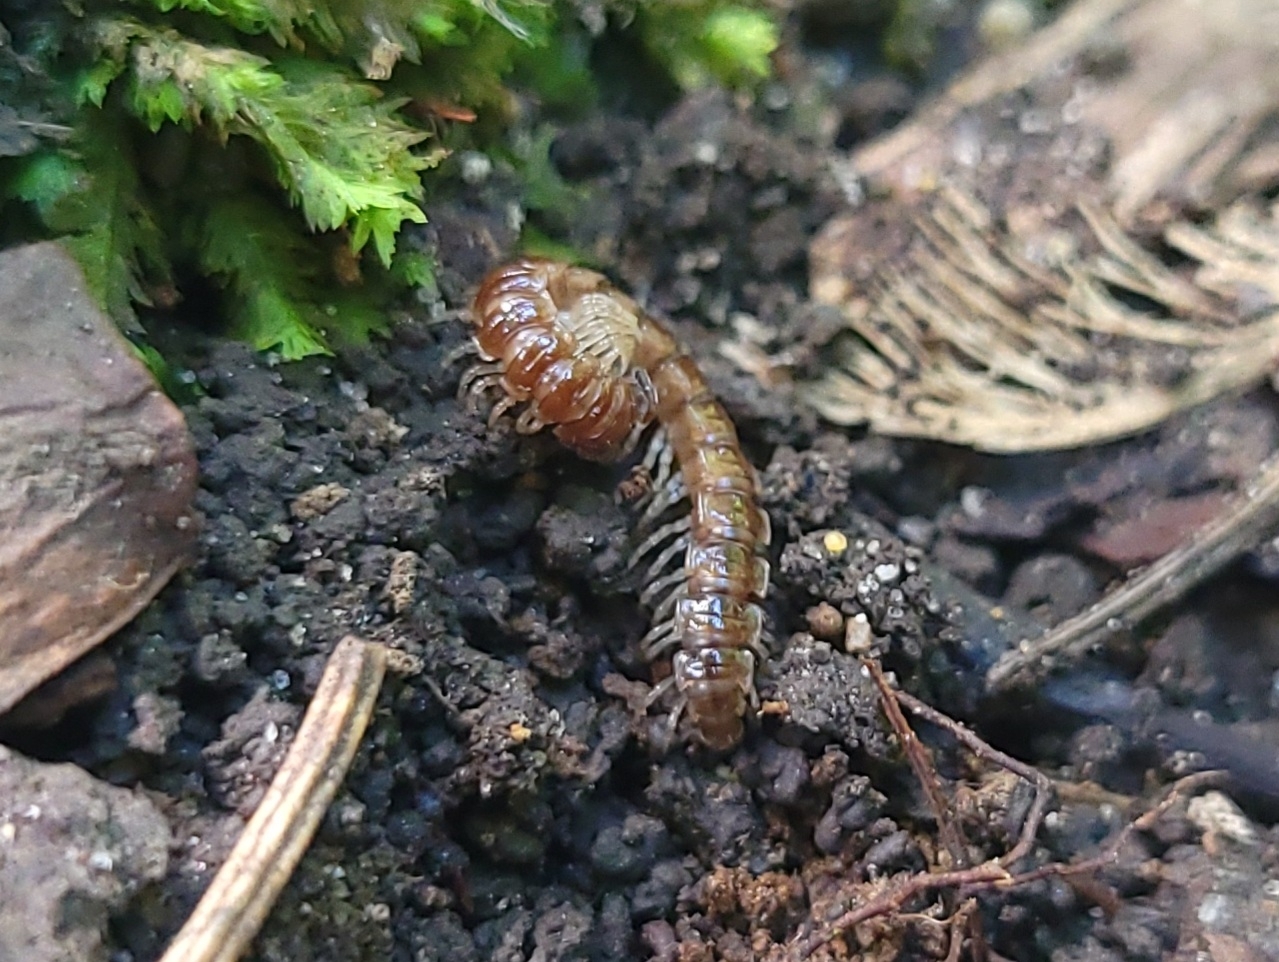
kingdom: Animalia
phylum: Arthropoda
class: Diplopoda
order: Polydesmida
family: Paradoxosomatidae
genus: Oxidus
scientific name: Oxidus gracilis
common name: Greenhouse millipede
